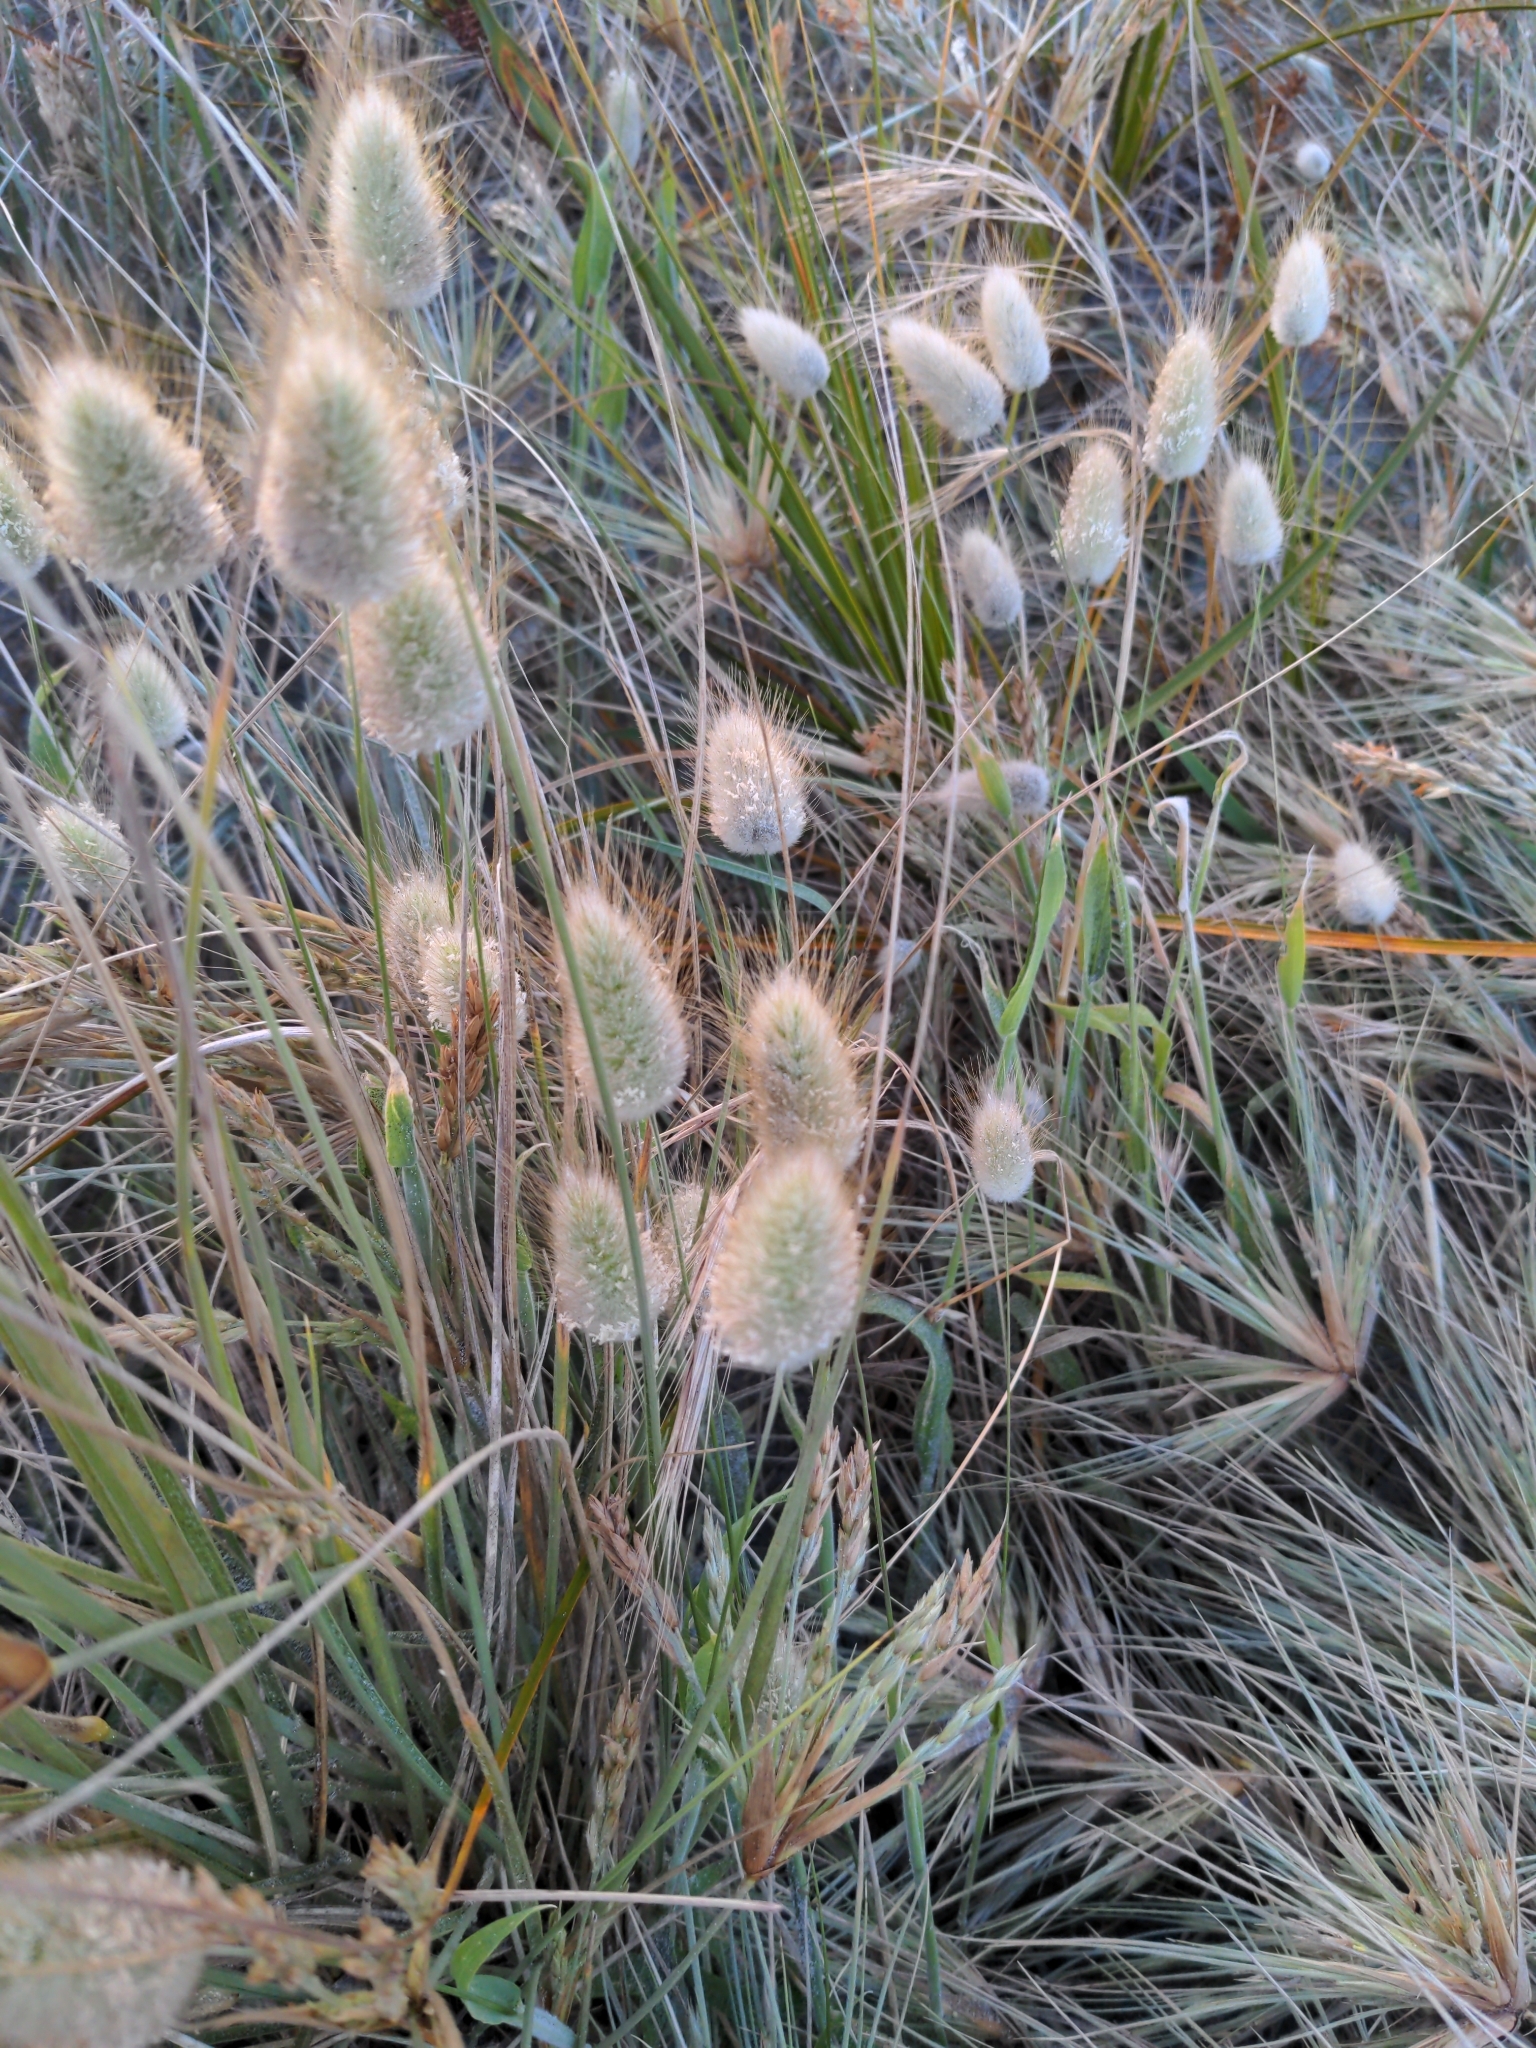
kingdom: Plantae
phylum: Tracheophyta
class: Liliopsida
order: Poales
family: Poaceae
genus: Lagurus
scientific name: Lagurus ovatus
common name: Hare's-tail
